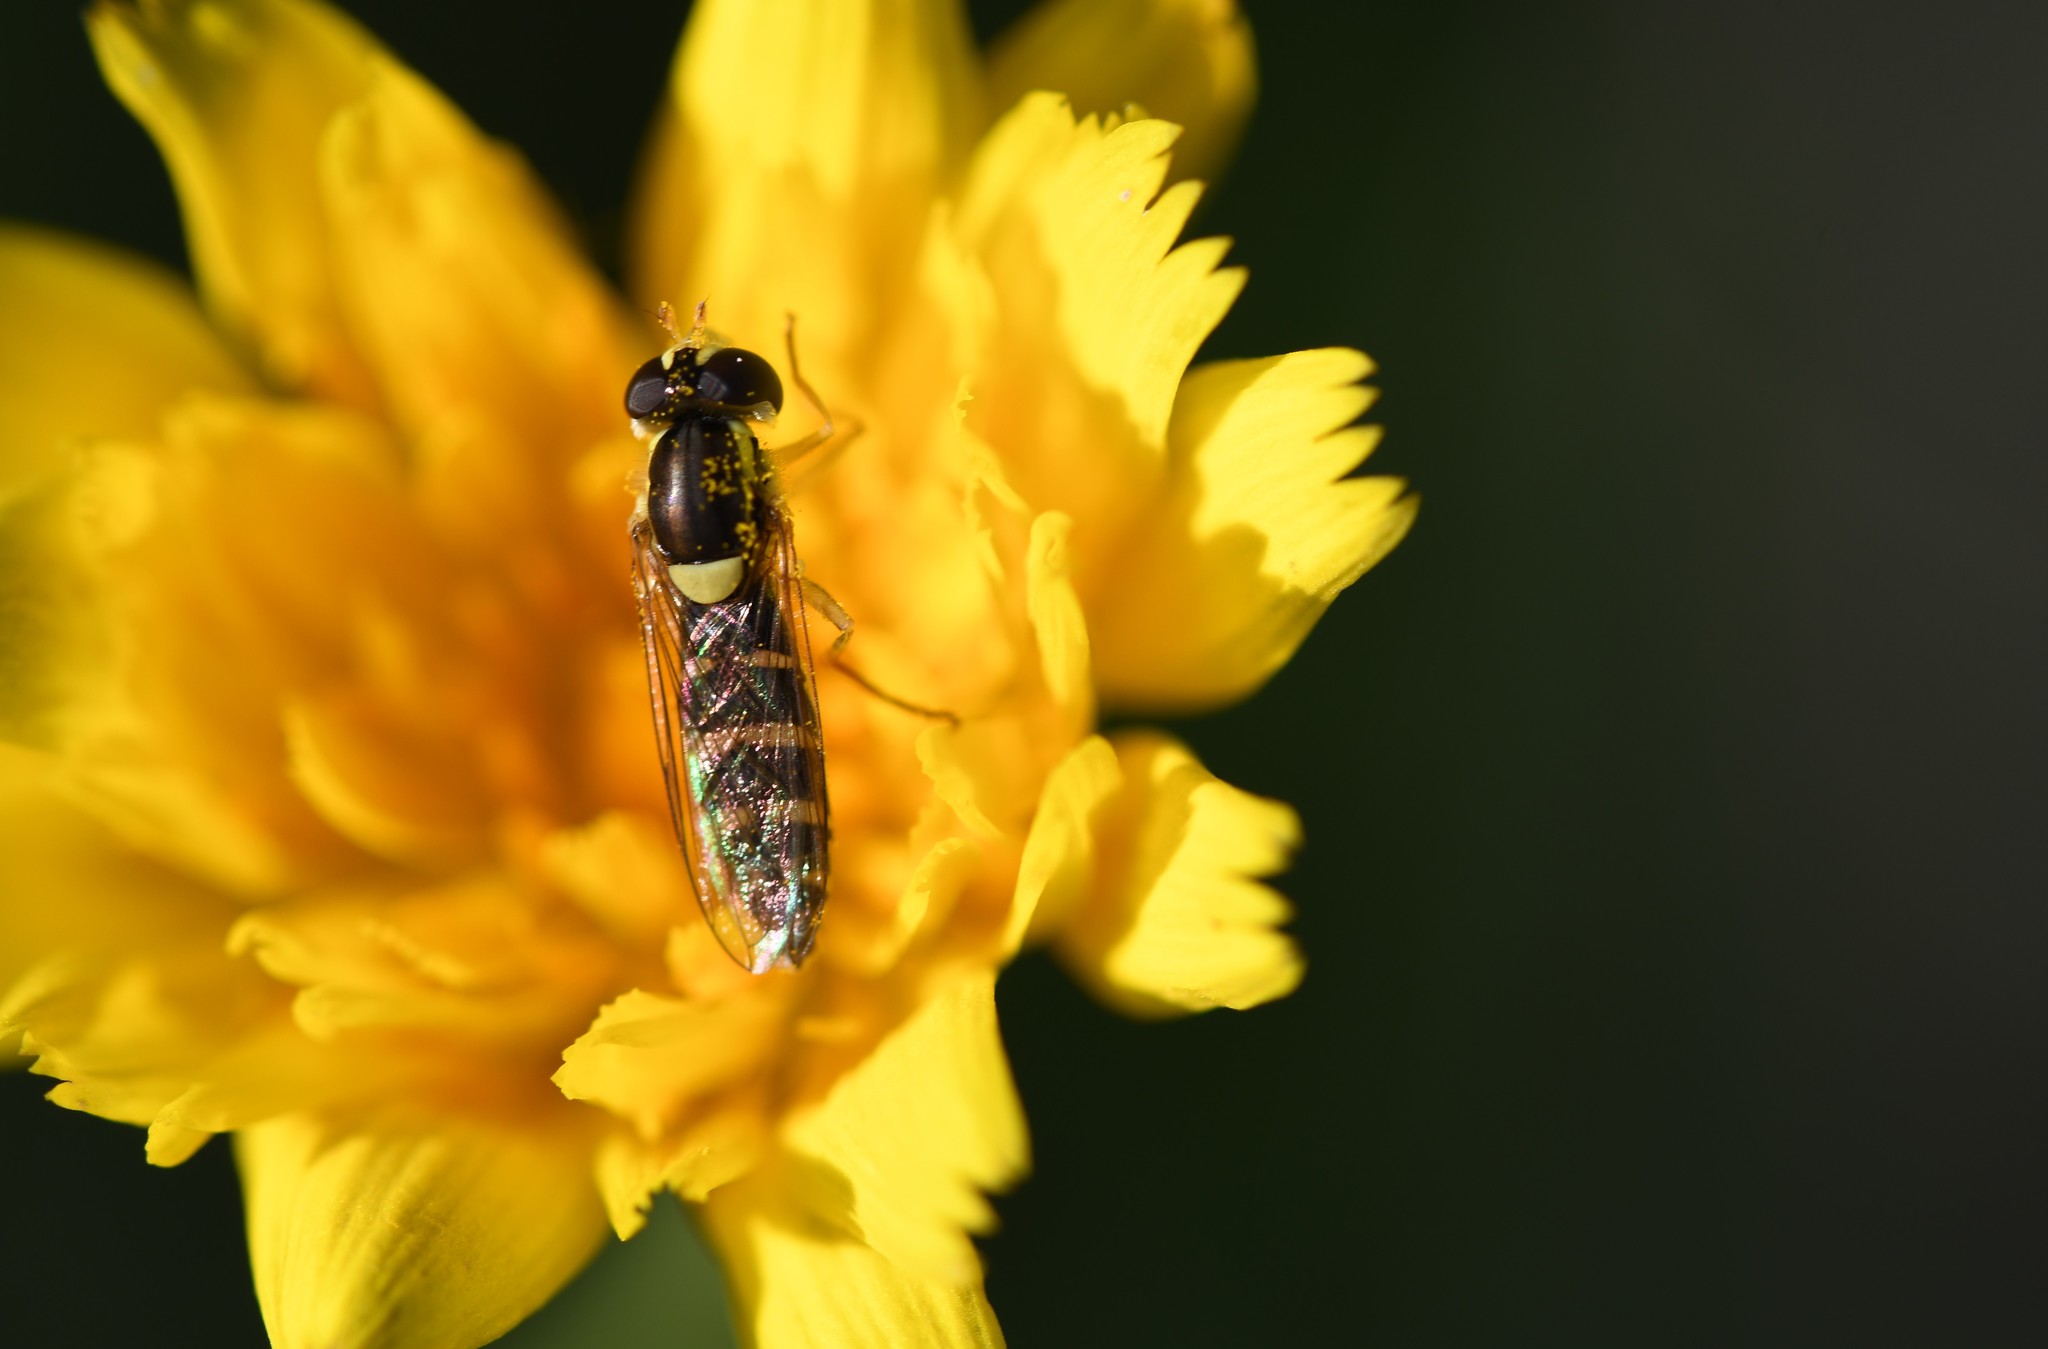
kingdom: Animalia
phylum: Arthropoda
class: Insecta
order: Diptera
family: Syrphidae
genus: Sphaerophoria
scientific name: Sphaerophoria
